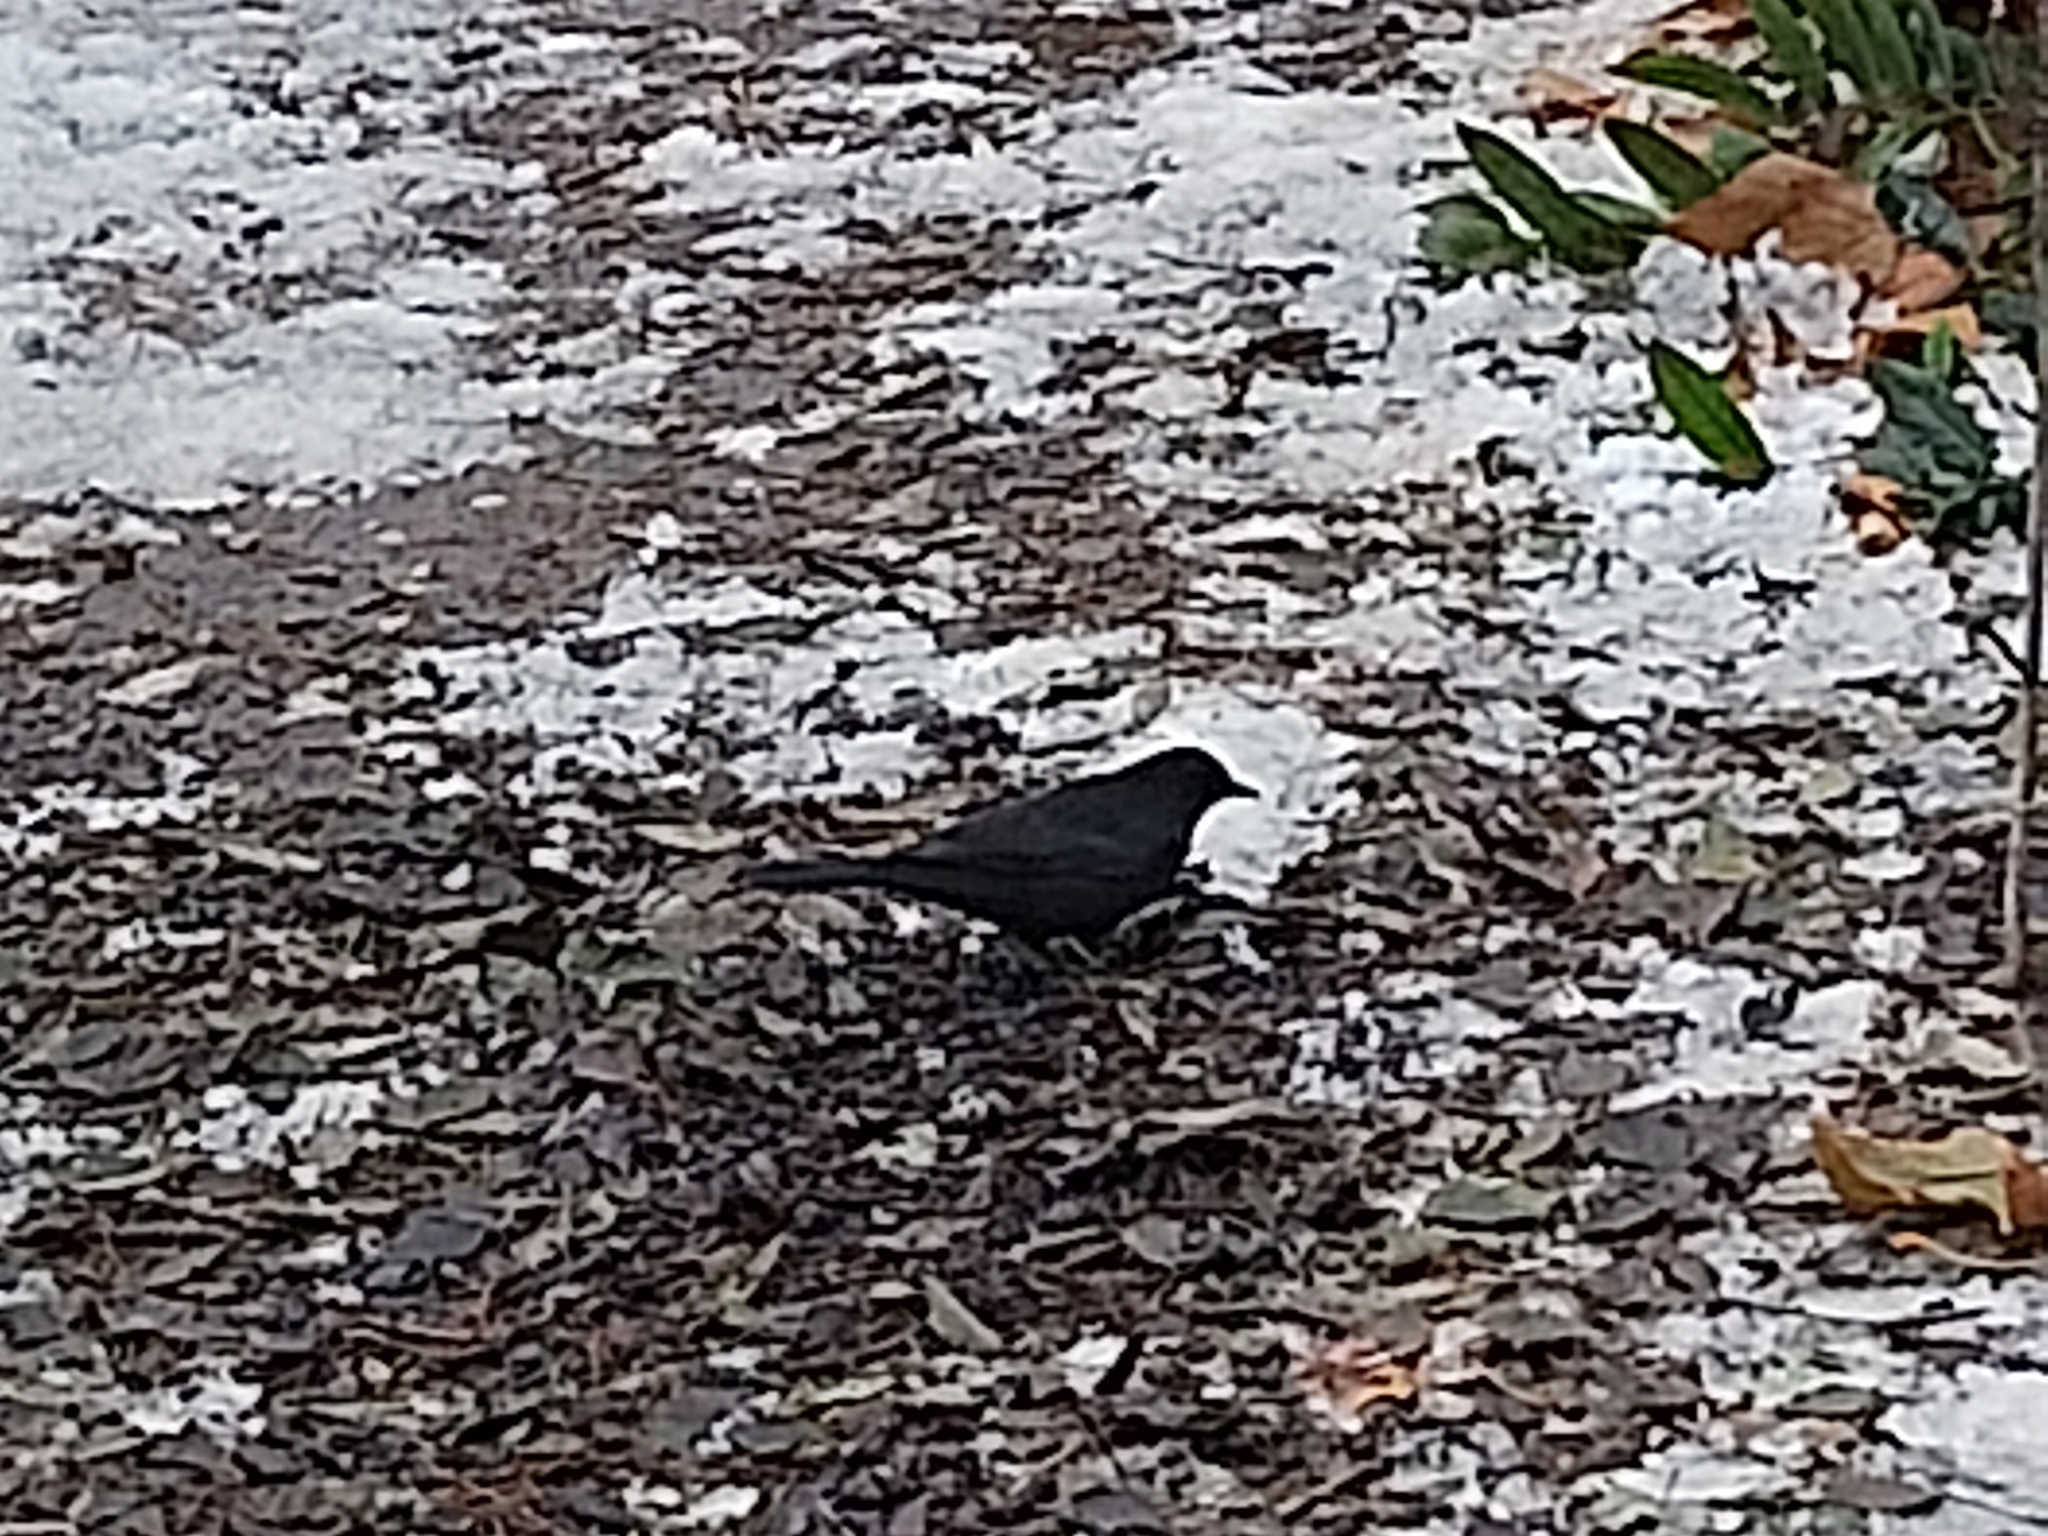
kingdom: Animalia
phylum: Chordata
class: Aves
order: Passeriformes
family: Turdidae
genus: Turdus
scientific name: Turdus merula
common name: Common blackbird
